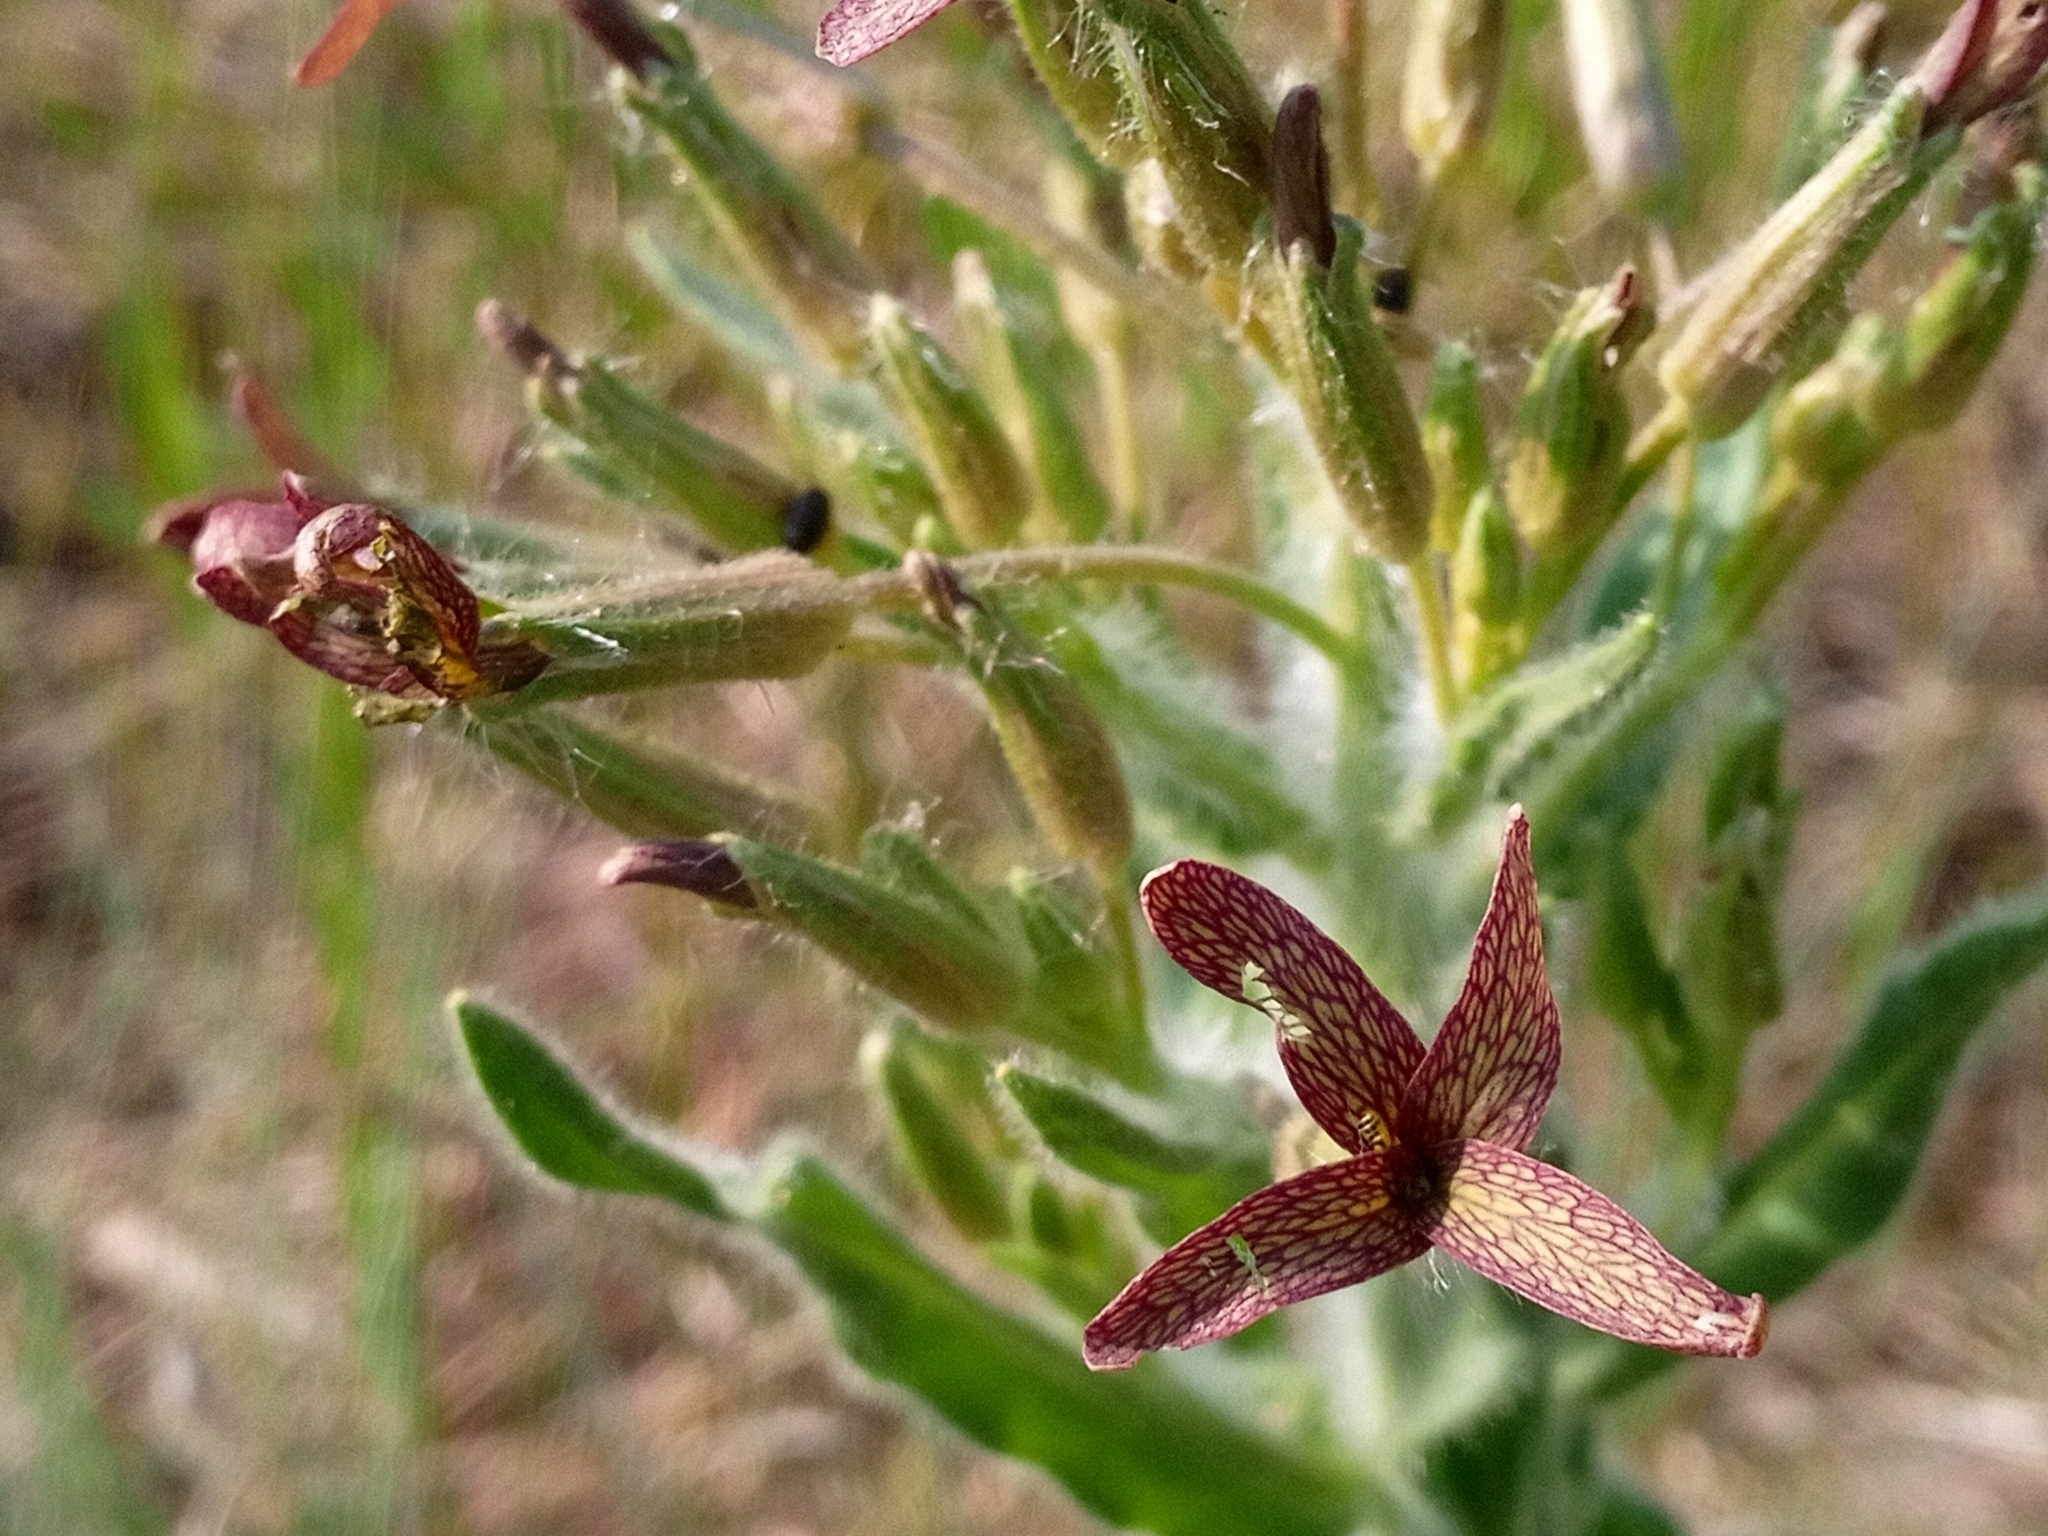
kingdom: Plantae
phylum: Tracheophyta
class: Magnoliopsida
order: Brassicales
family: Brassicaceae
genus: Hesperis
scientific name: Hesperis tristis
